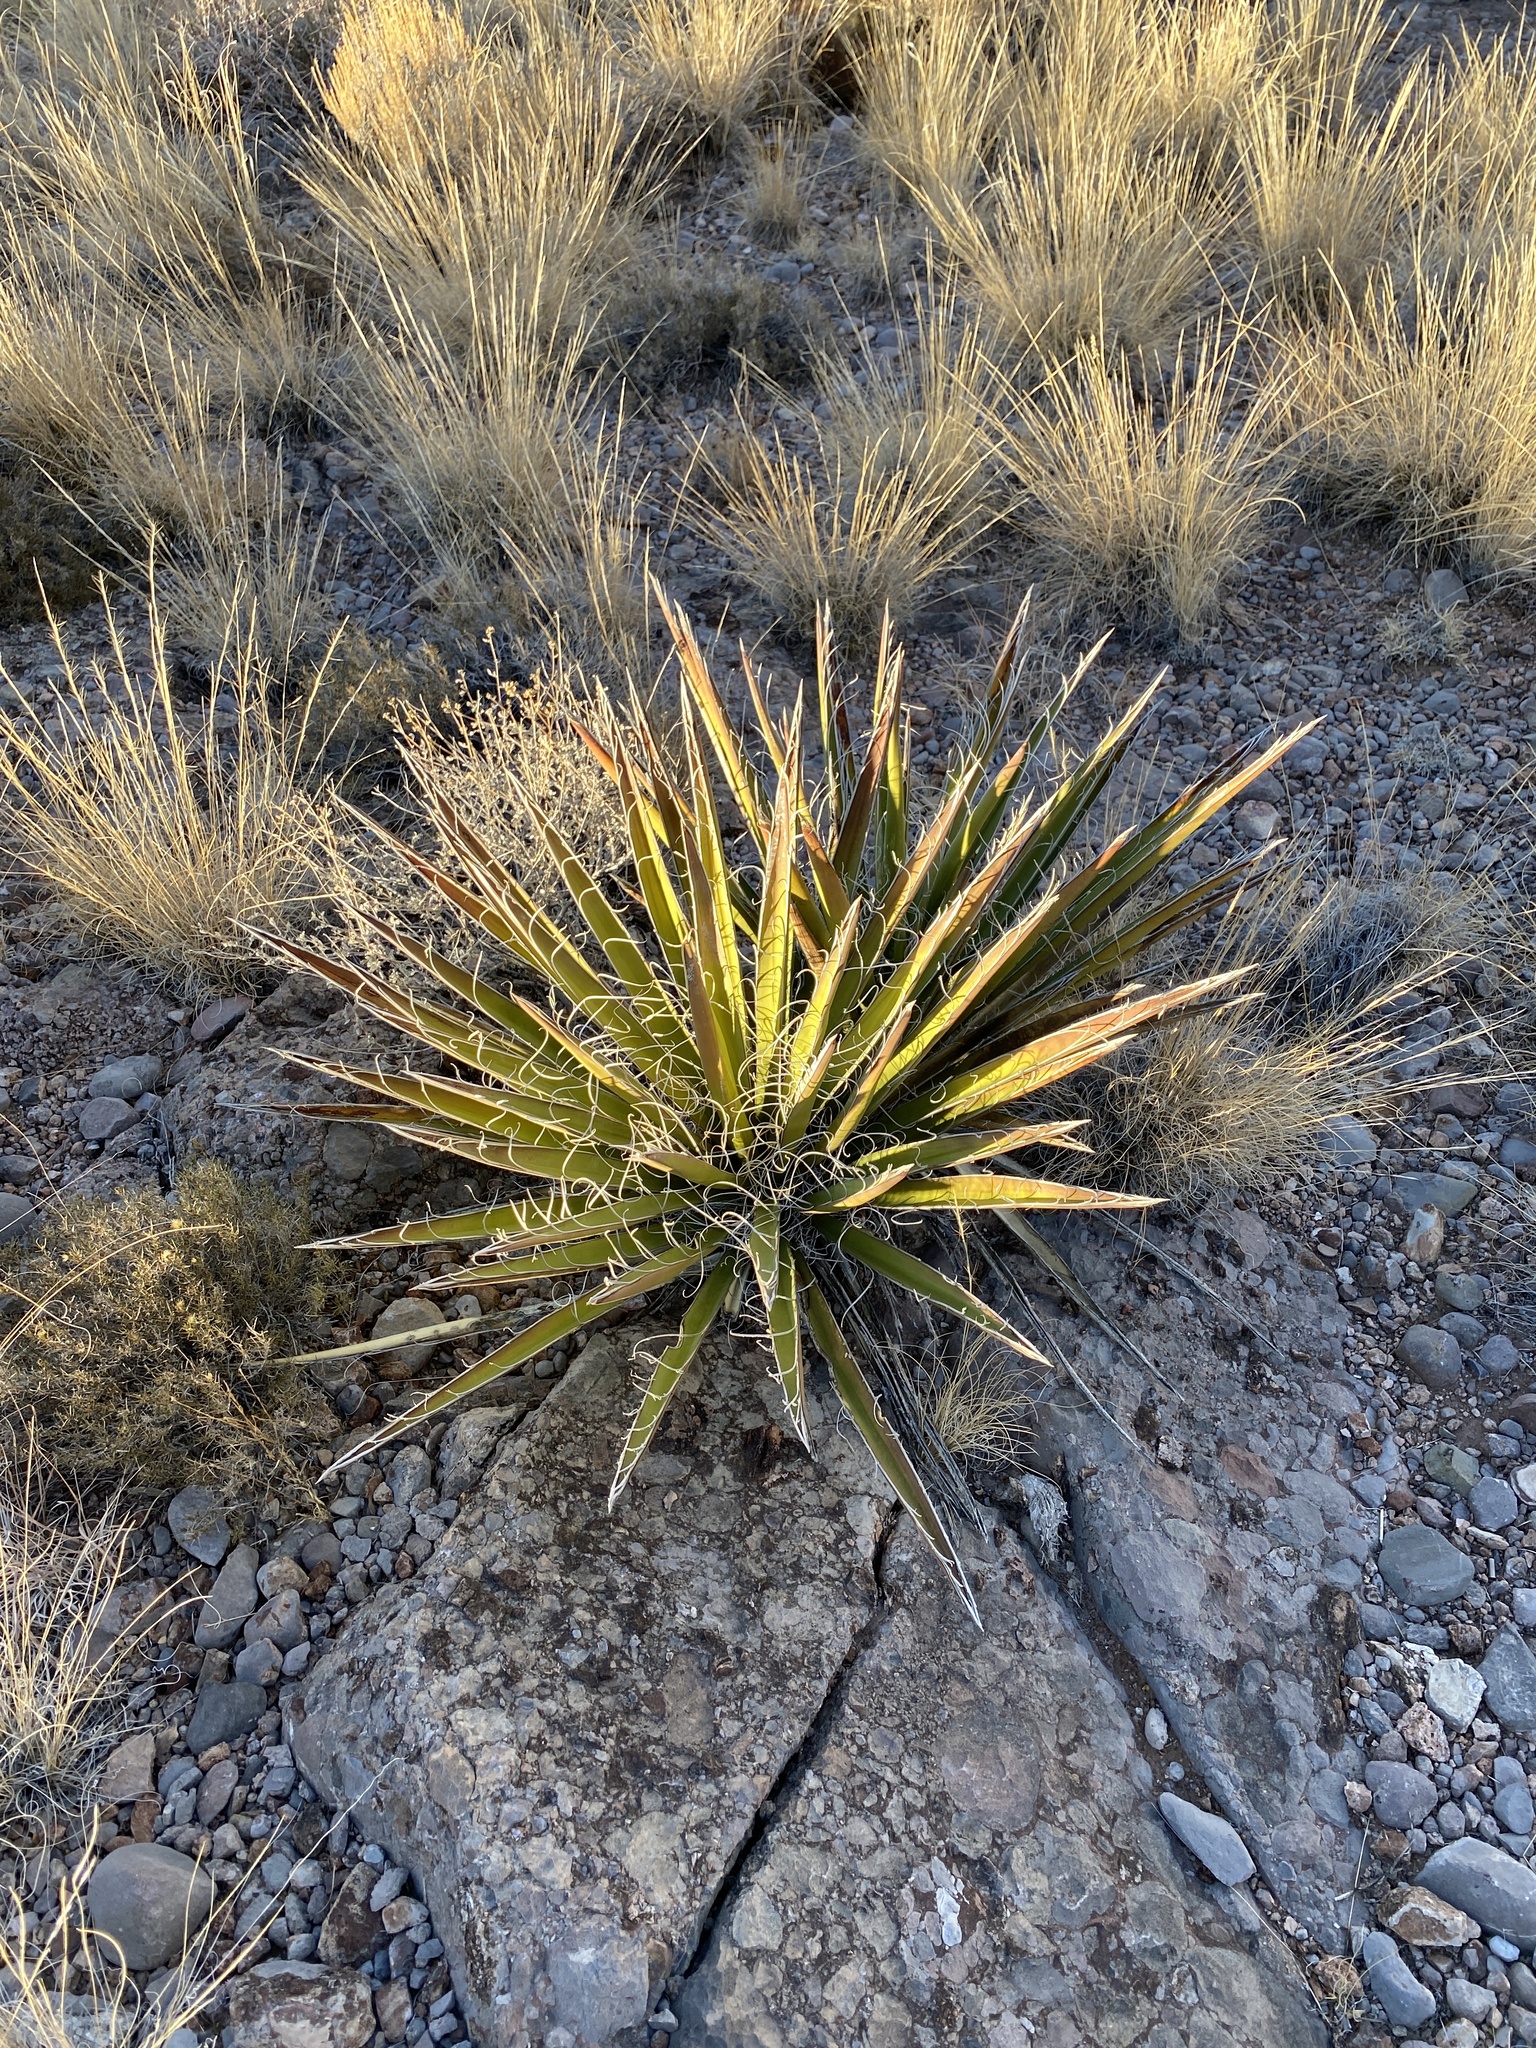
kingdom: Plantae
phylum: Tracheophyta
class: Liliopsida
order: Asparagales
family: Asparagaceae
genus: Yucca
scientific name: Yucca baccata
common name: Banana yucca
